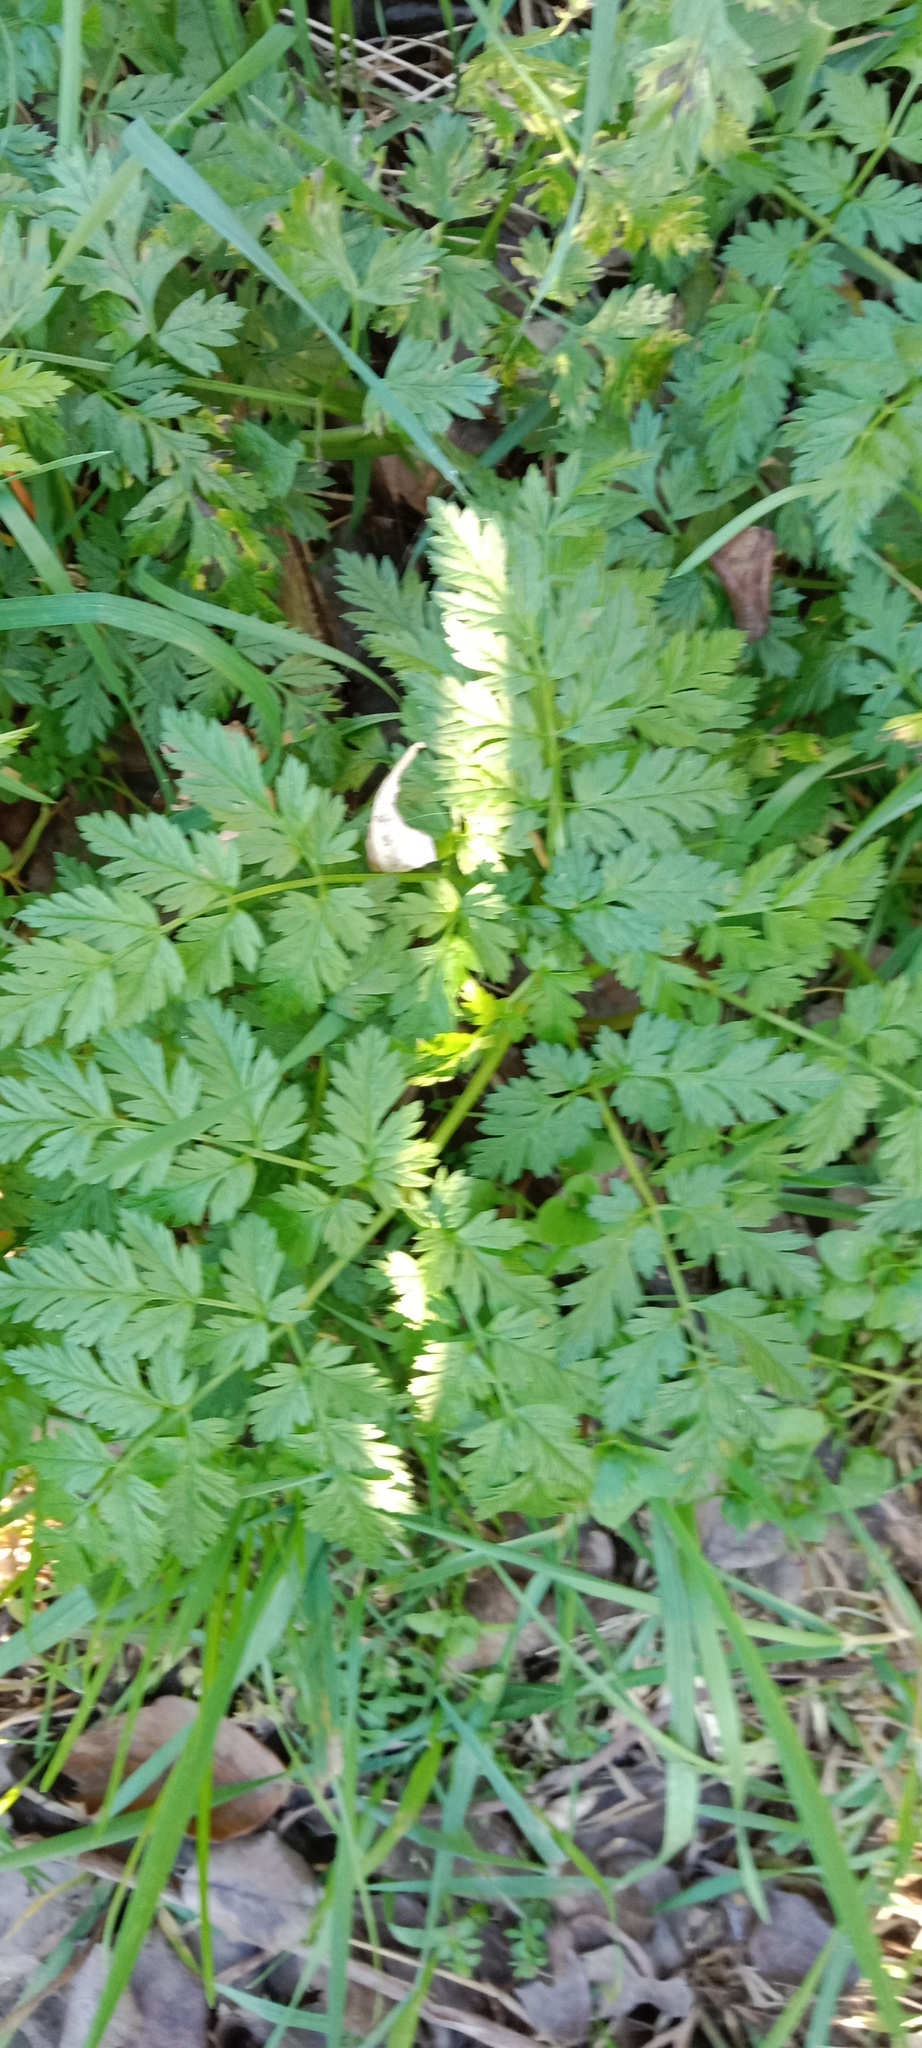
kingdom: Plantae
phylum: Tracheophyta
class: Magnoliopsida
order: Apiales
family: Apiaceae
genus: Anthriscus
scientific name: Anthriscus sylvestris
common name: Cow parsley
